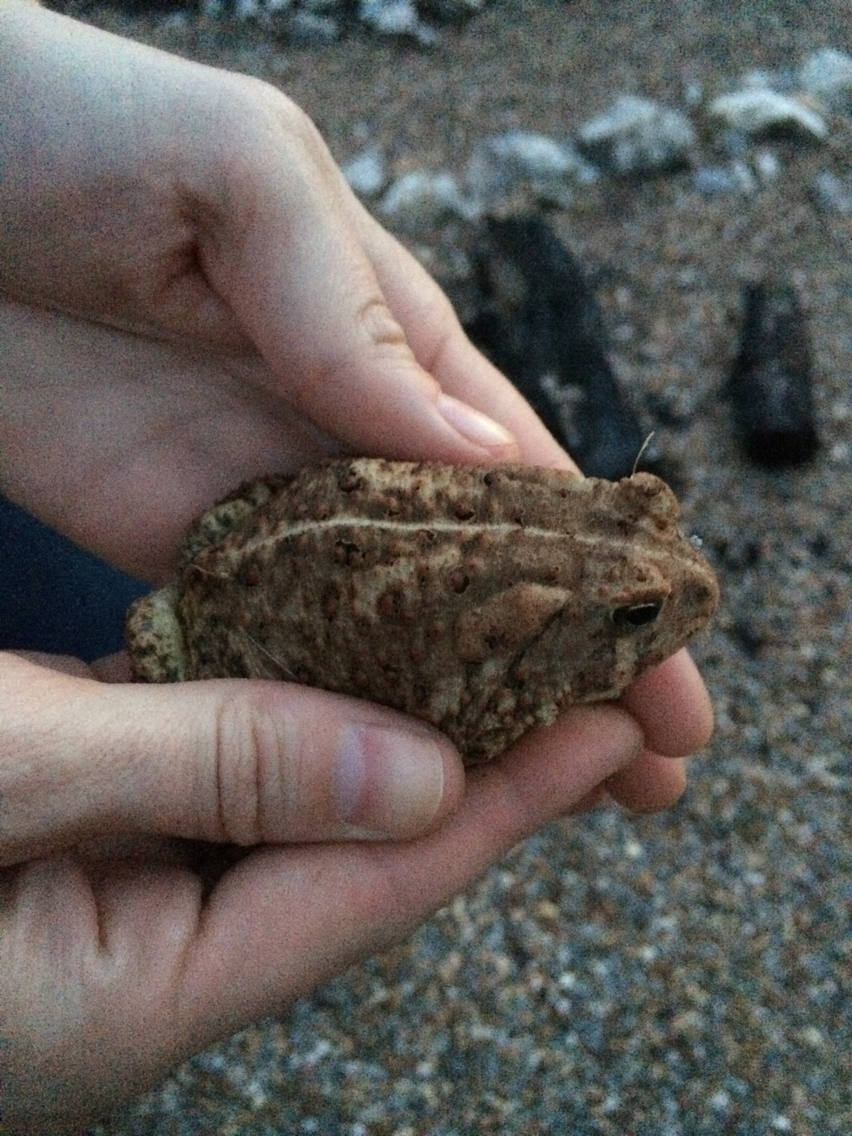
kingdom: Animalia
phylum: Chordata
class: Amphibia
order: Anura
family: Bufonidae
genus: Anaxyrus
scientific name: Anaxyrus woodhousii
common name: Woodhouse's toad
